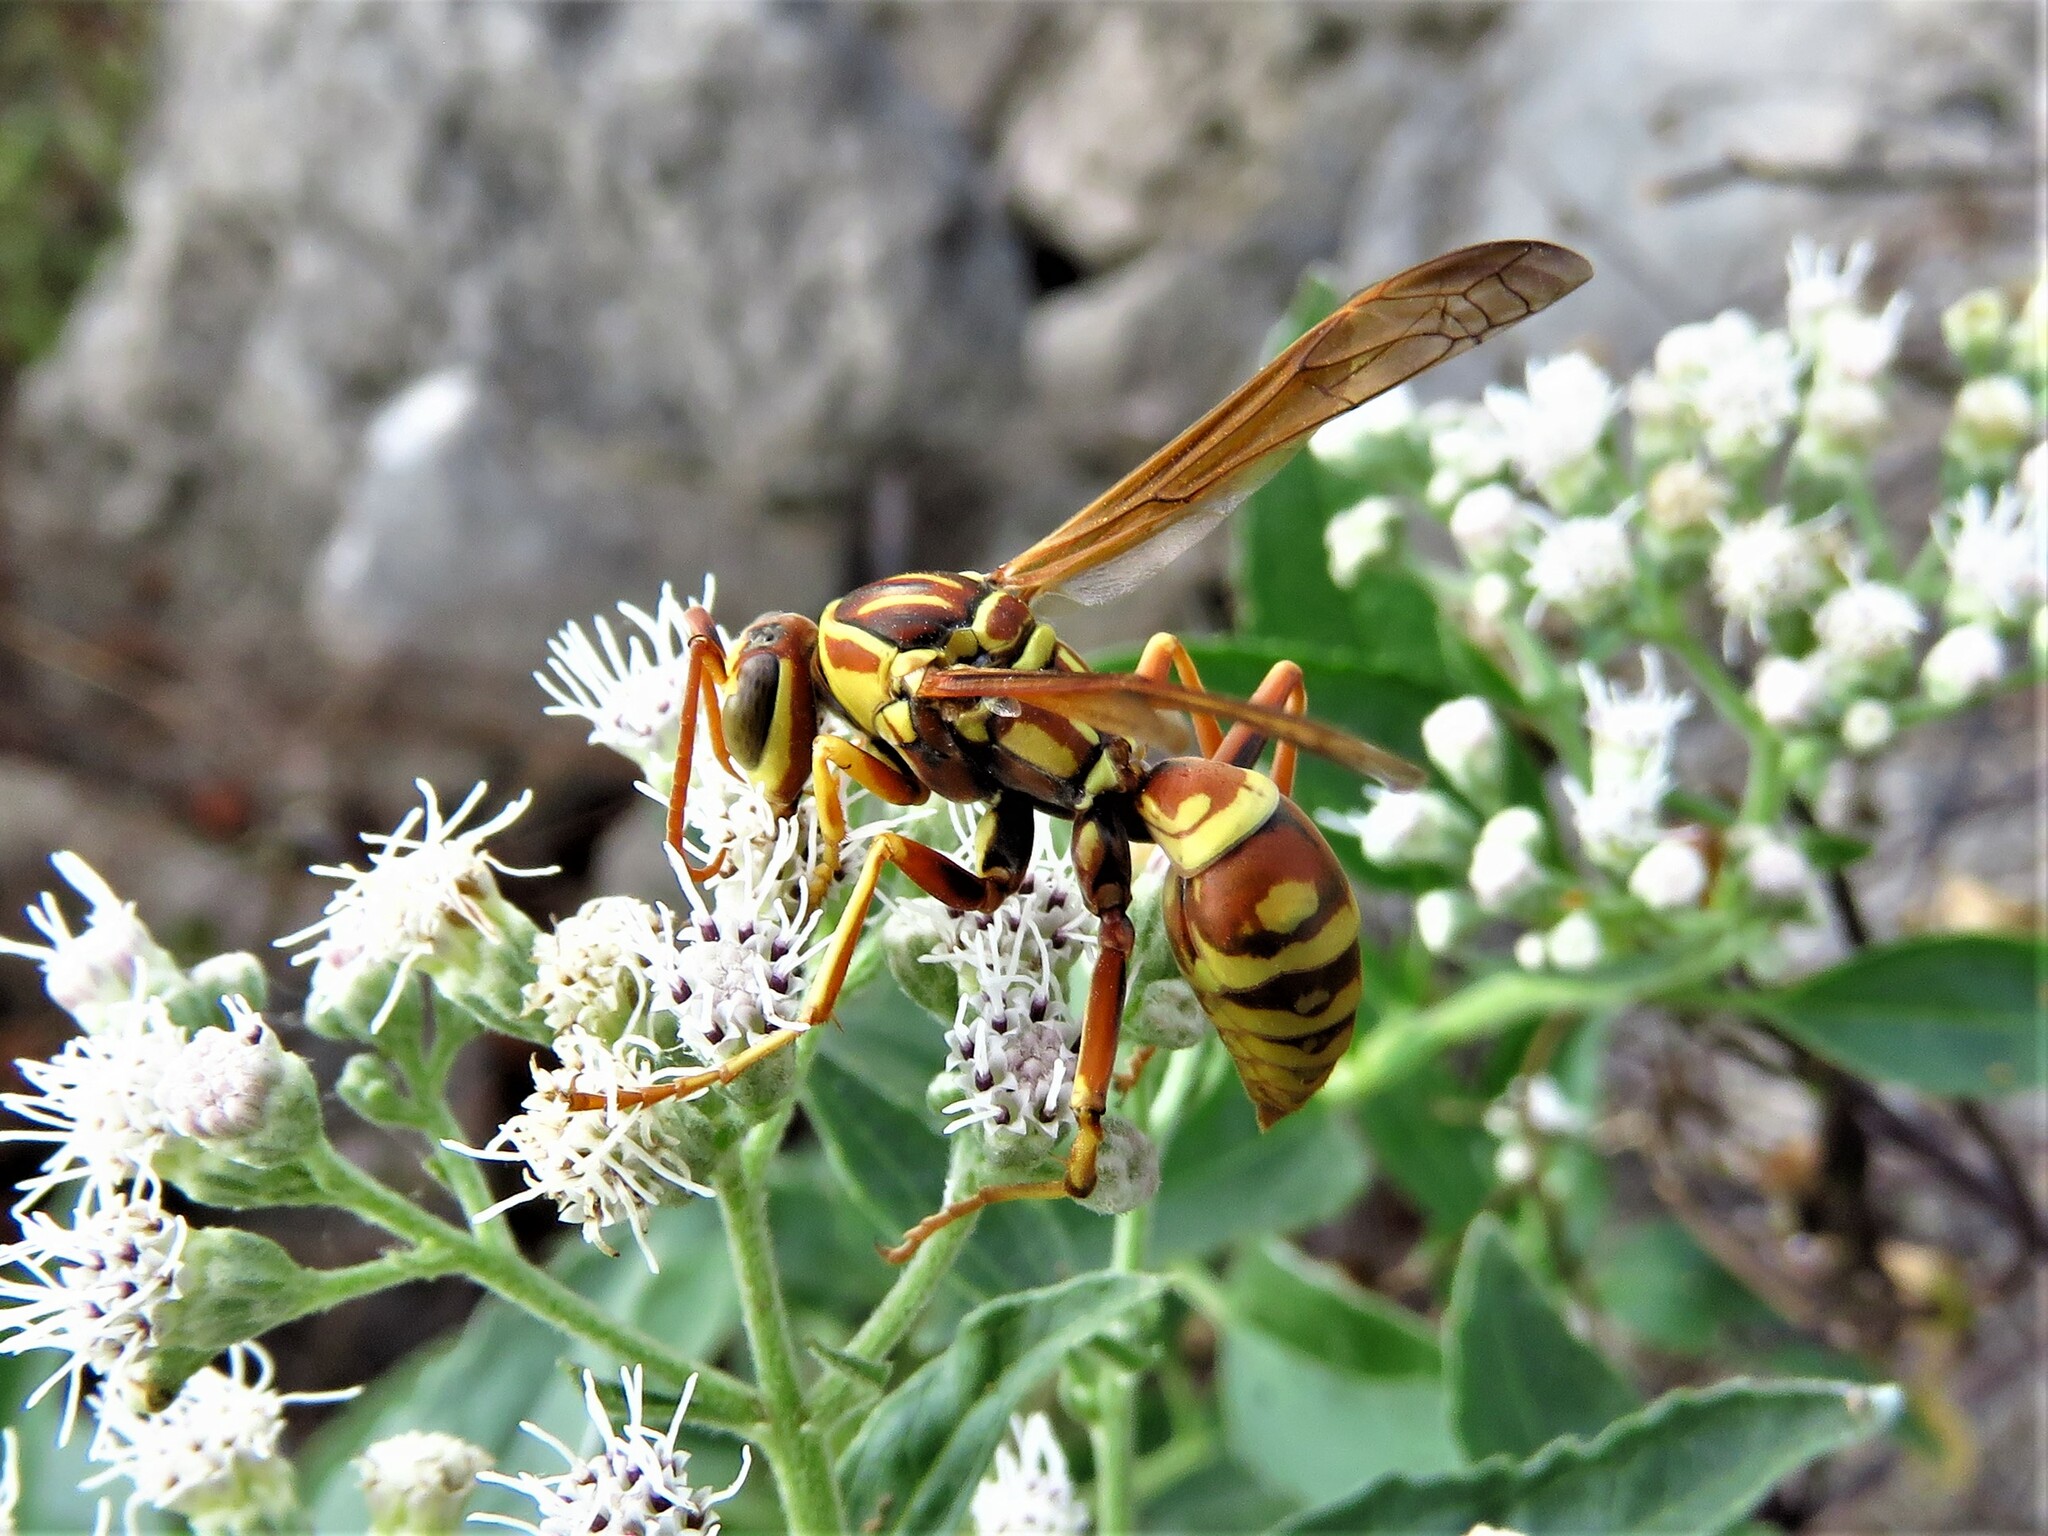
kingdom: Animalia
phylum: Arthropoda
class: Insecta
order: Hymenoptera
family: Eumenidae
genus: Polistes
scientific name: Polistes apachus
